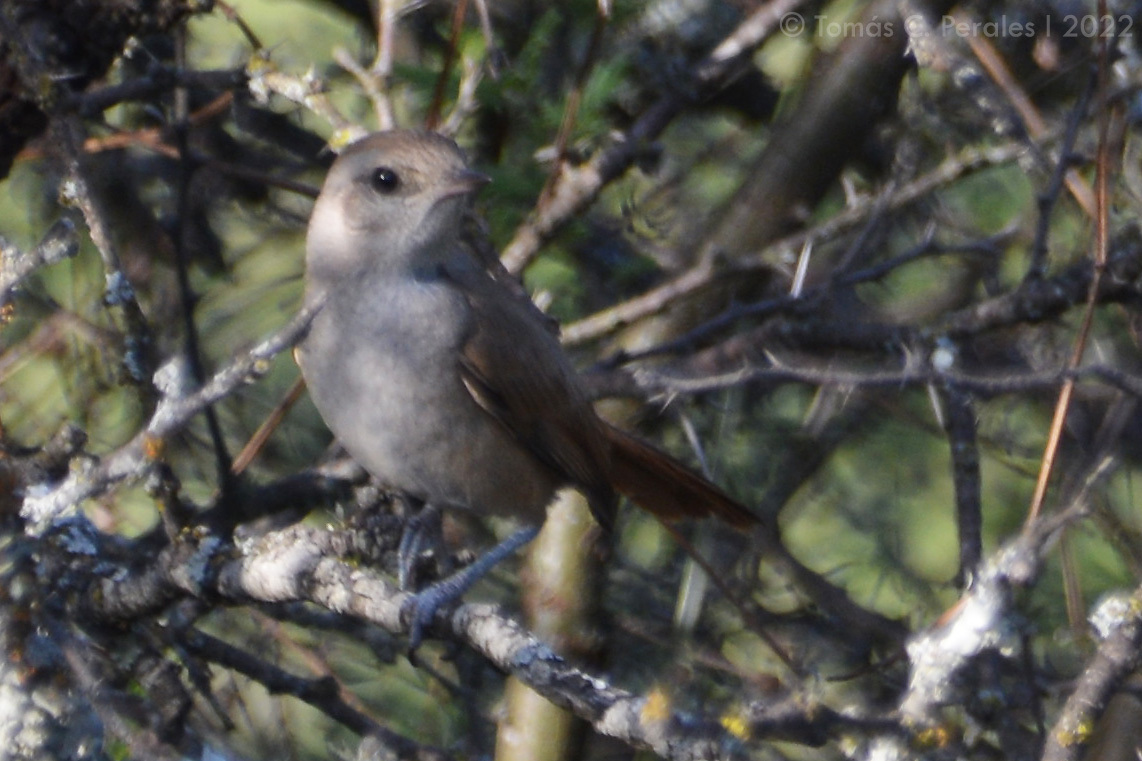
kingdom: Animalia
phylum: Chordata
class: Aves
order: Passeriformes
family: Furnariidae
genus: Asthenes
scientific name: Asthenes baeri
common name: Short-billed canastero
